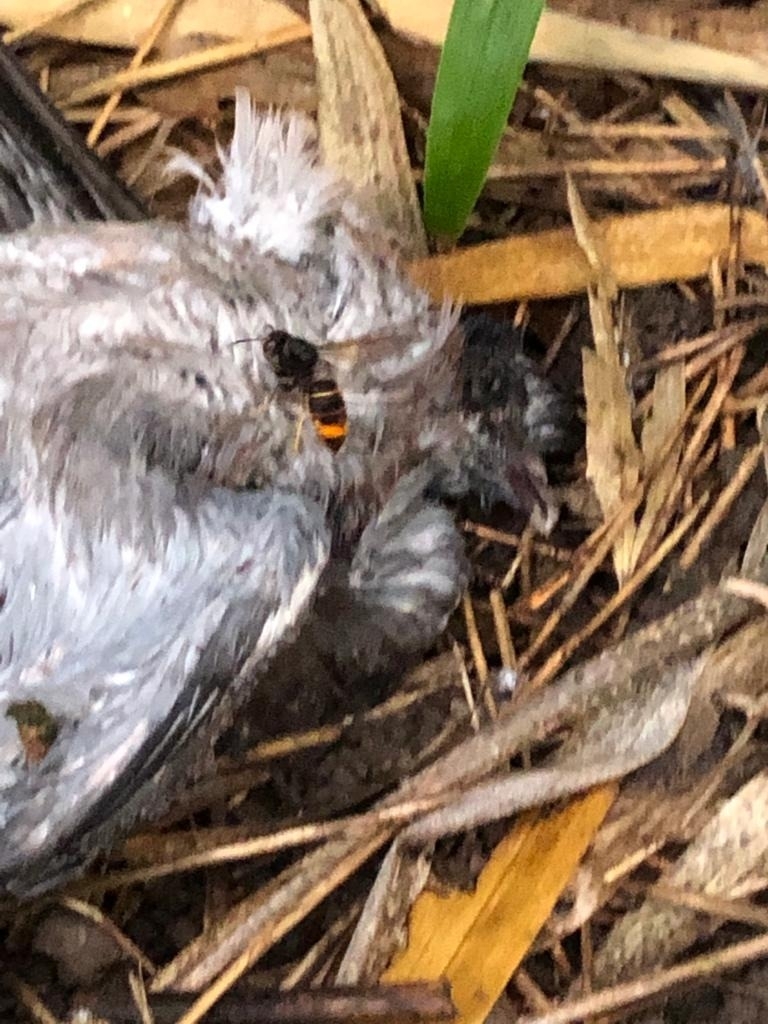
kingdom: Animalia
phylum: Arthropoda
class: Insecta
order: Hymenoptera
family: Vespidae
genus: Vespa
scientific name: Vespa velutina
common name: Asian hornet
